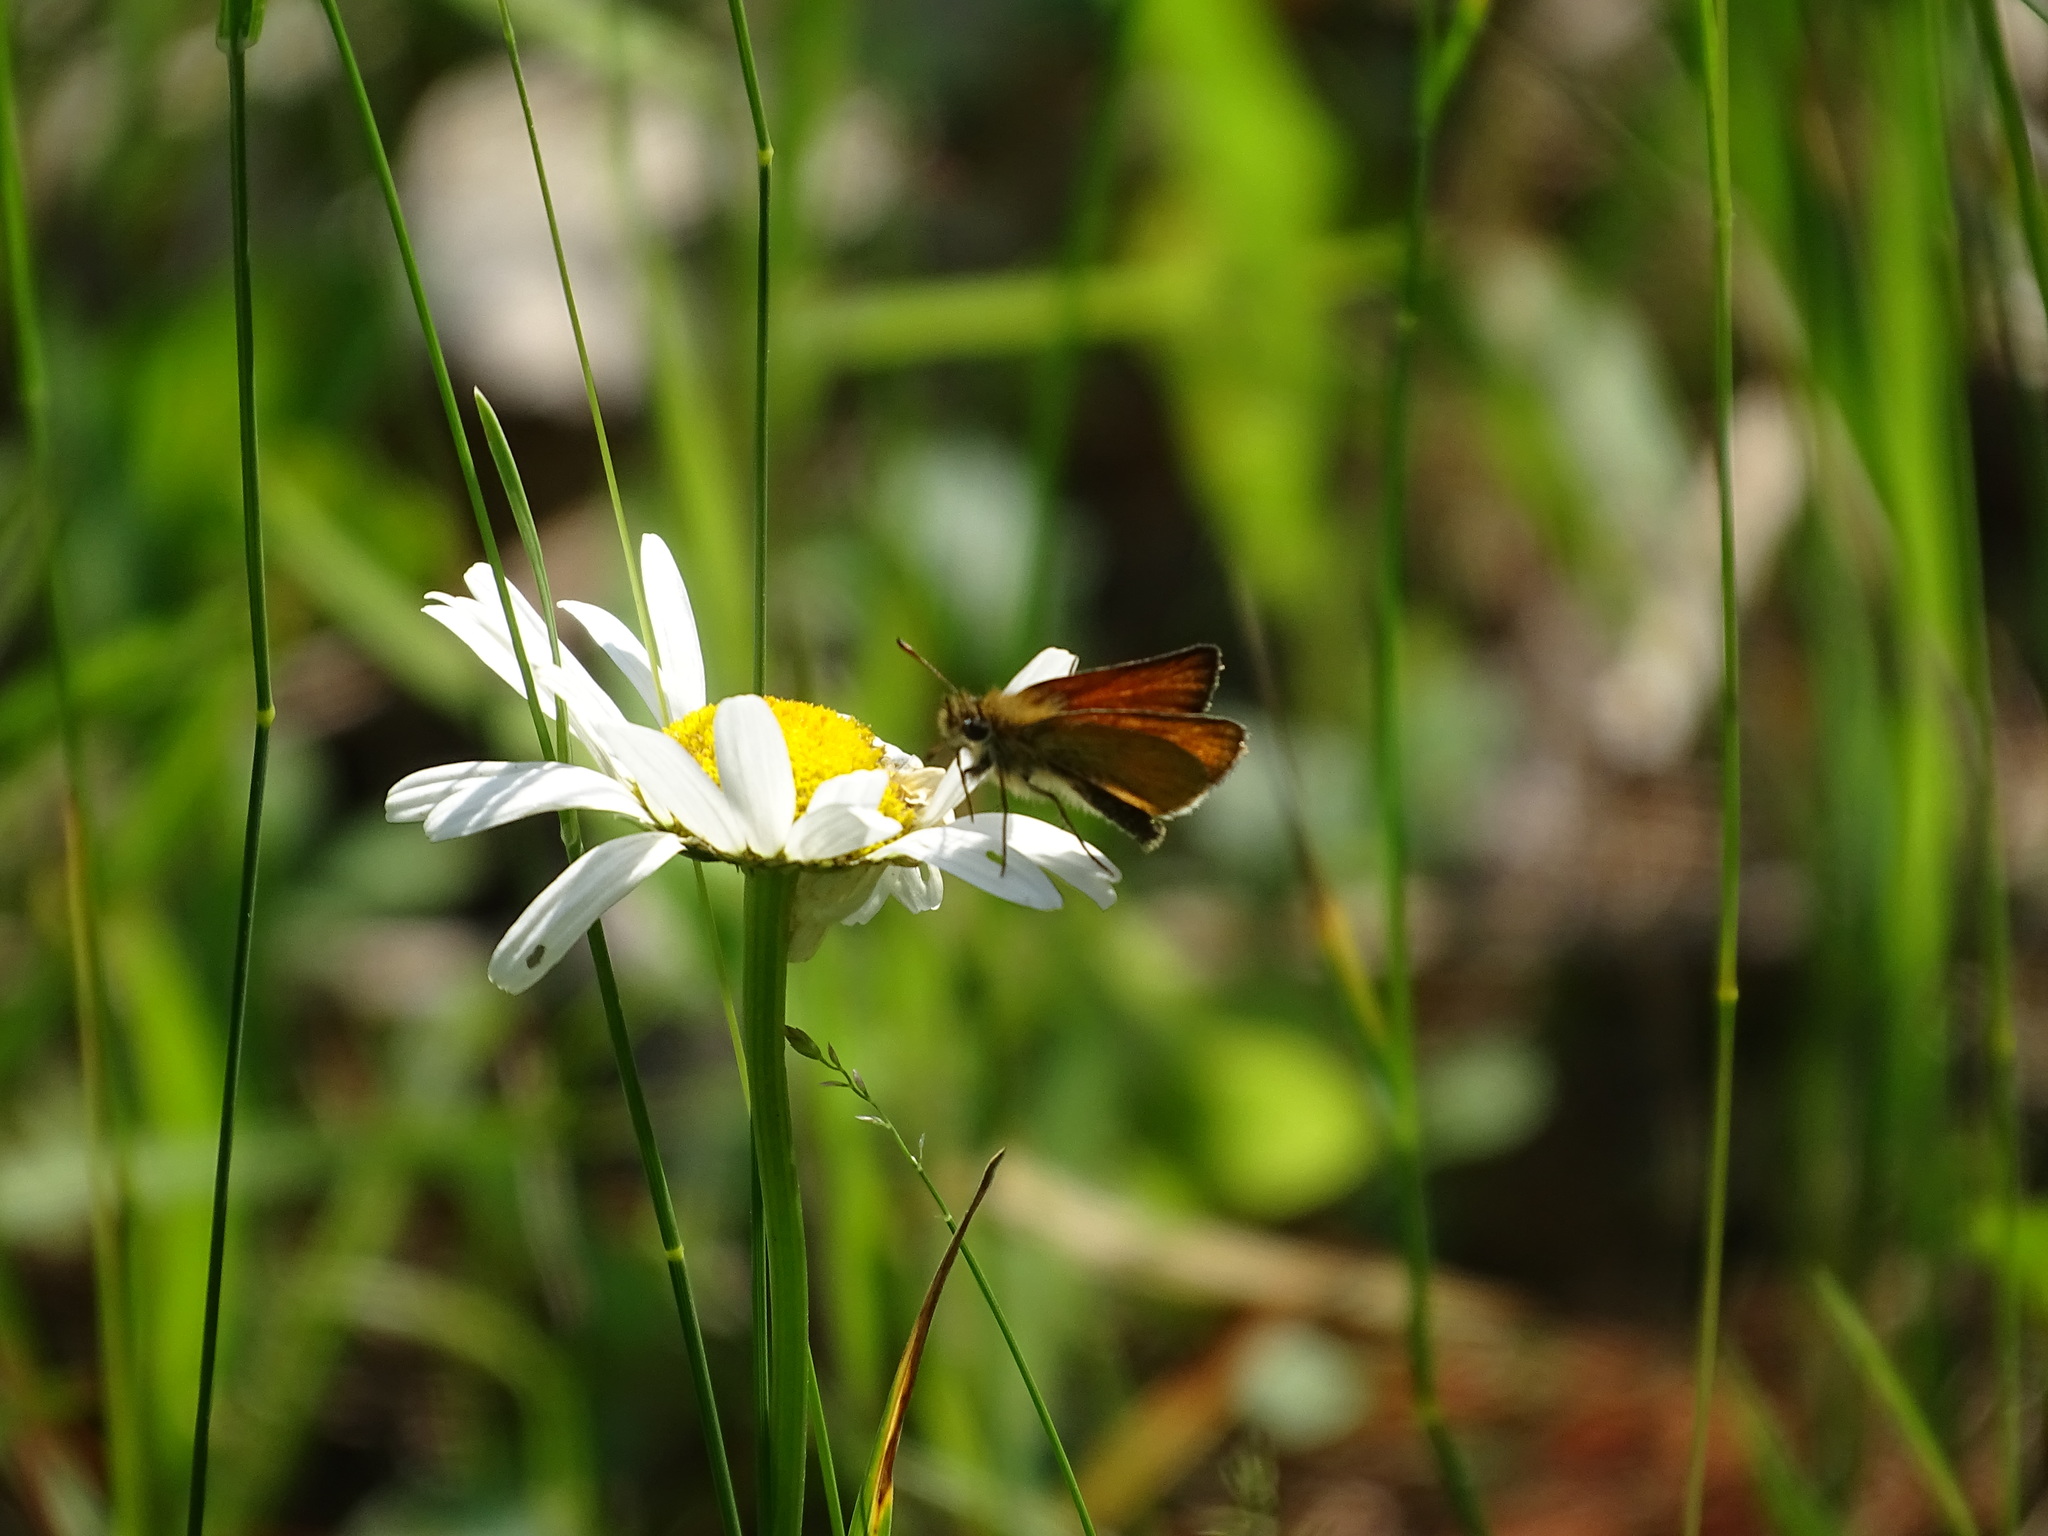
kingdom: Animalia
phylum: Arthropoda
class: Insecta
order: Lepidoptera
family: Hesperiidae
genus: Thymelicus
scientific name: Thymelicus lineola
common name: Essex skipper
